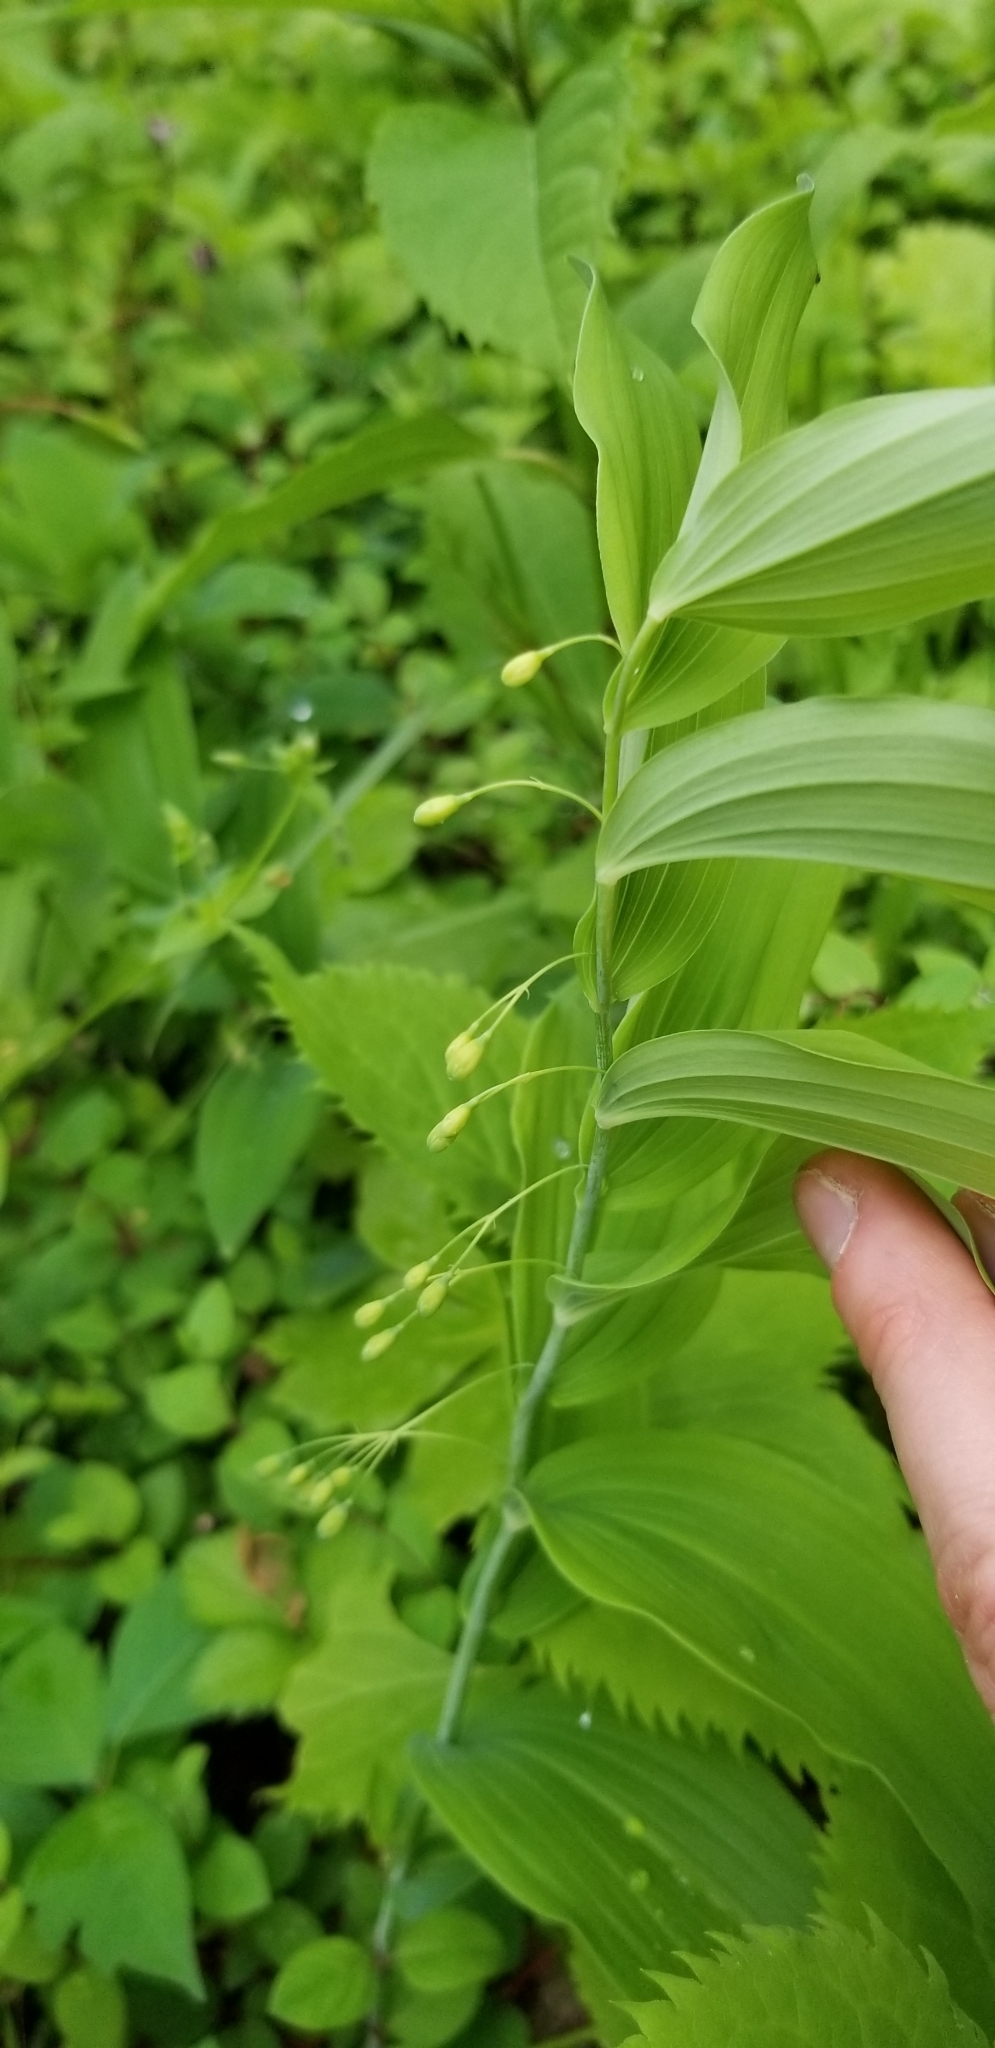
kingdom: Plantae
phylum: Tracheophyta
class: Liliopsida
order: Asparagales
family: Asparagaceae
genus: Polygonatum
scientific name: Polygonatum biflorum
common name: American solomon's-seal
